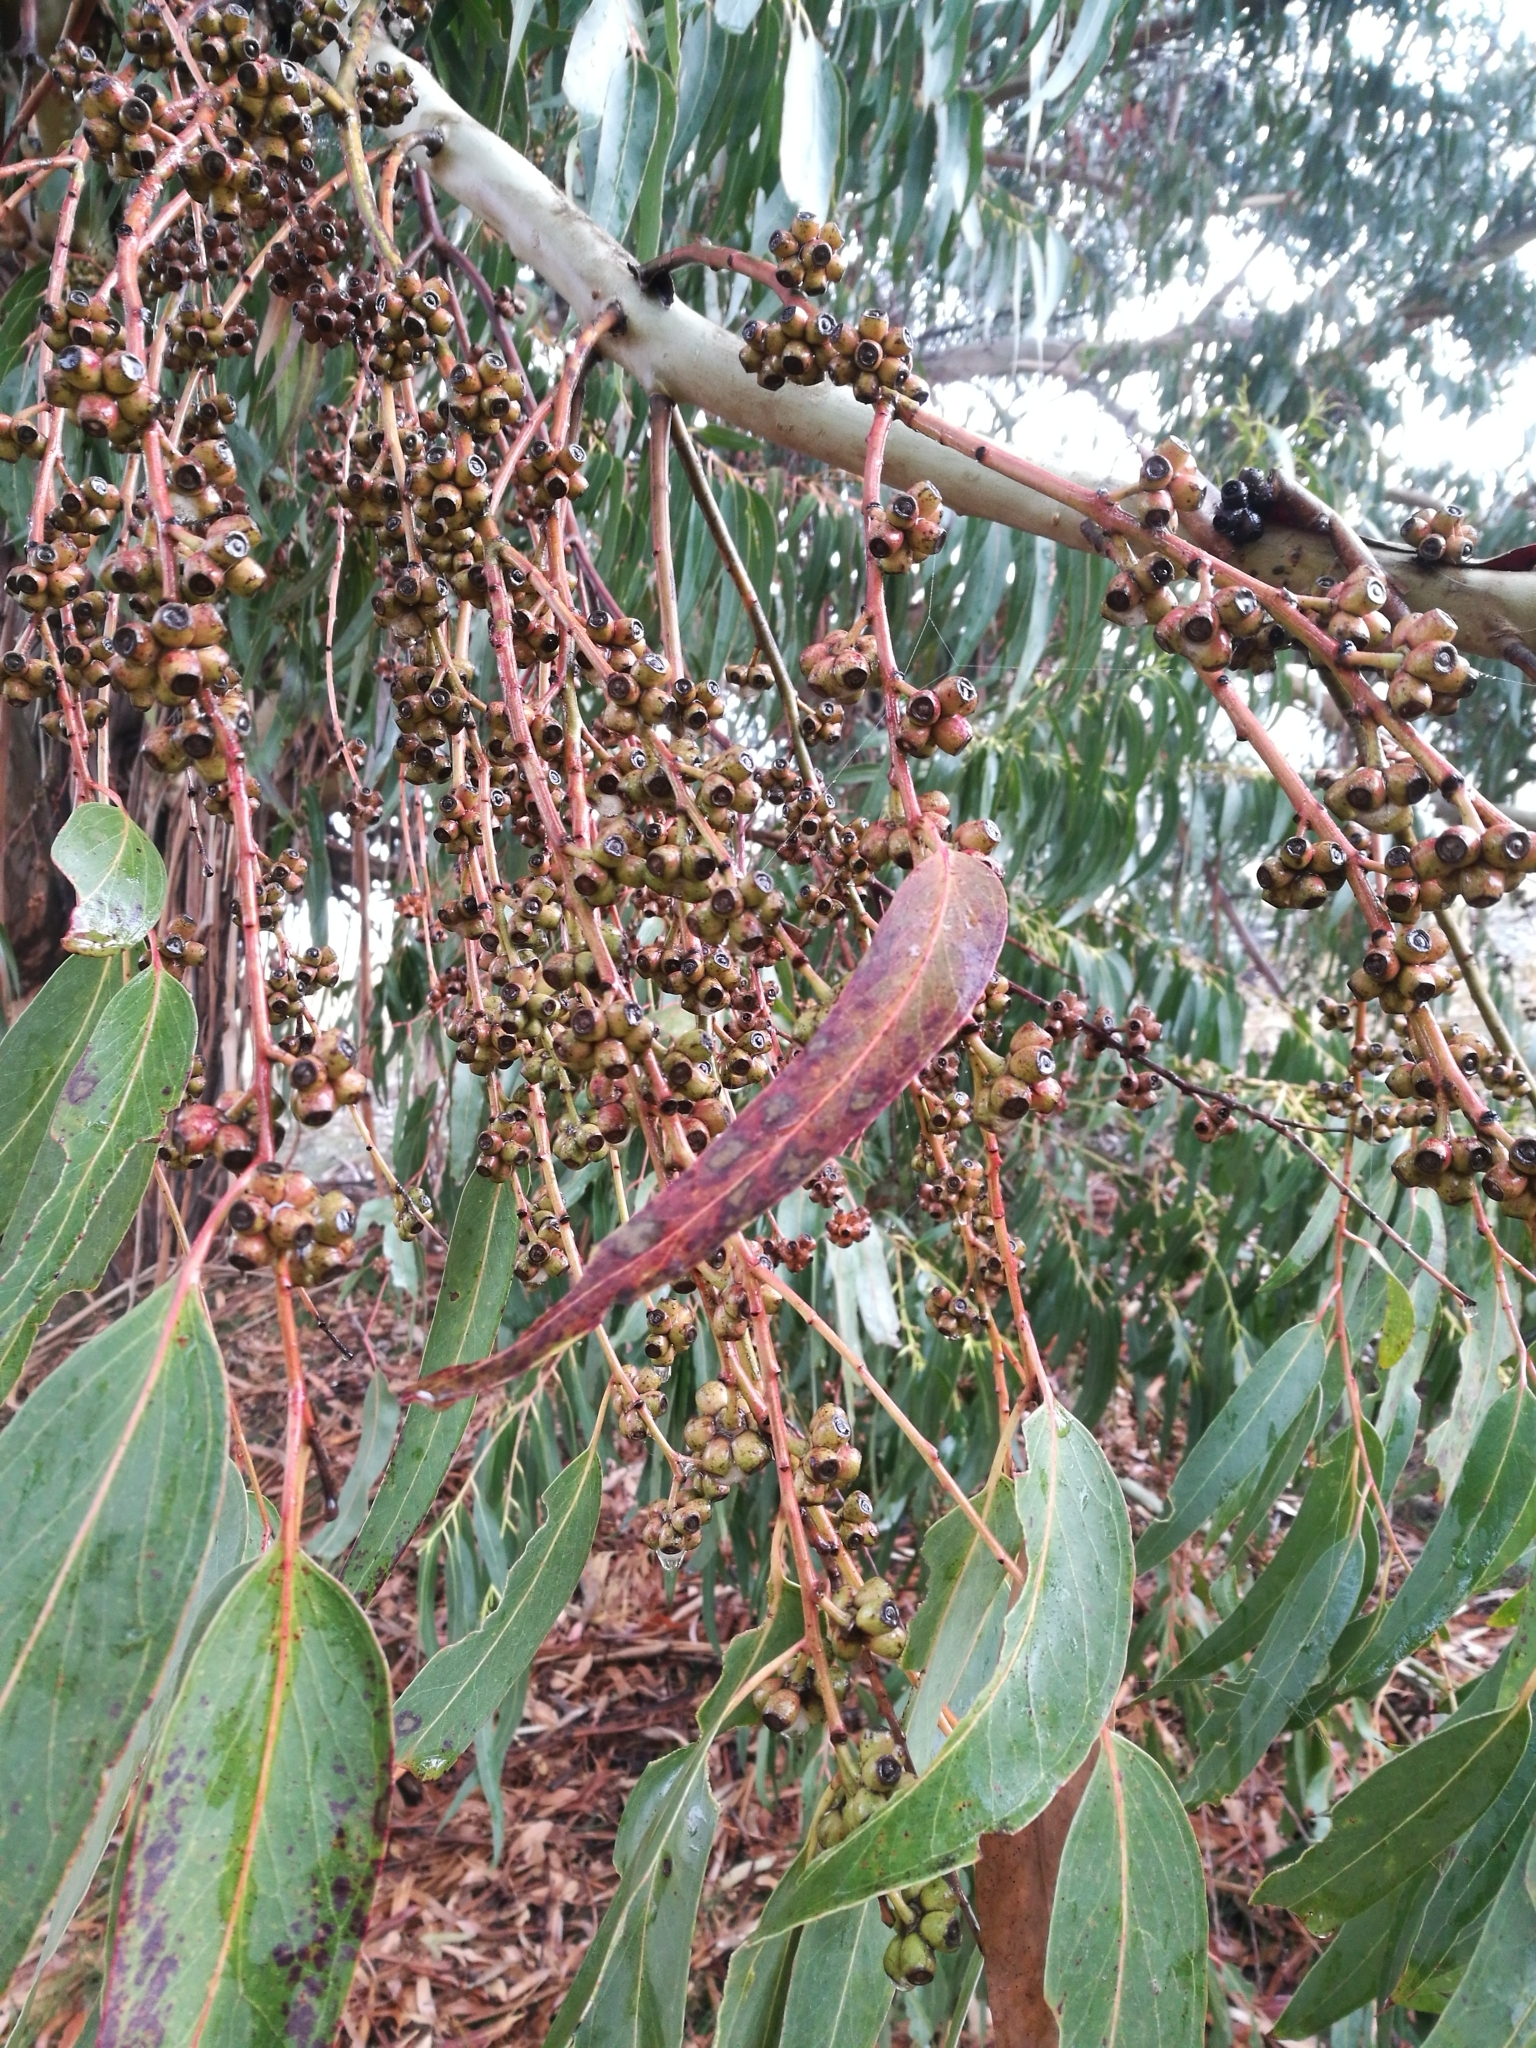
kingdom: Plantae
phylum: Tracheophyta
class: Magnoliopsida
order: Myrtales
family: Myrtaceae
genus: Eucalyptus
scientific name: Eucalyptus nitens
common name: Shining-gum
